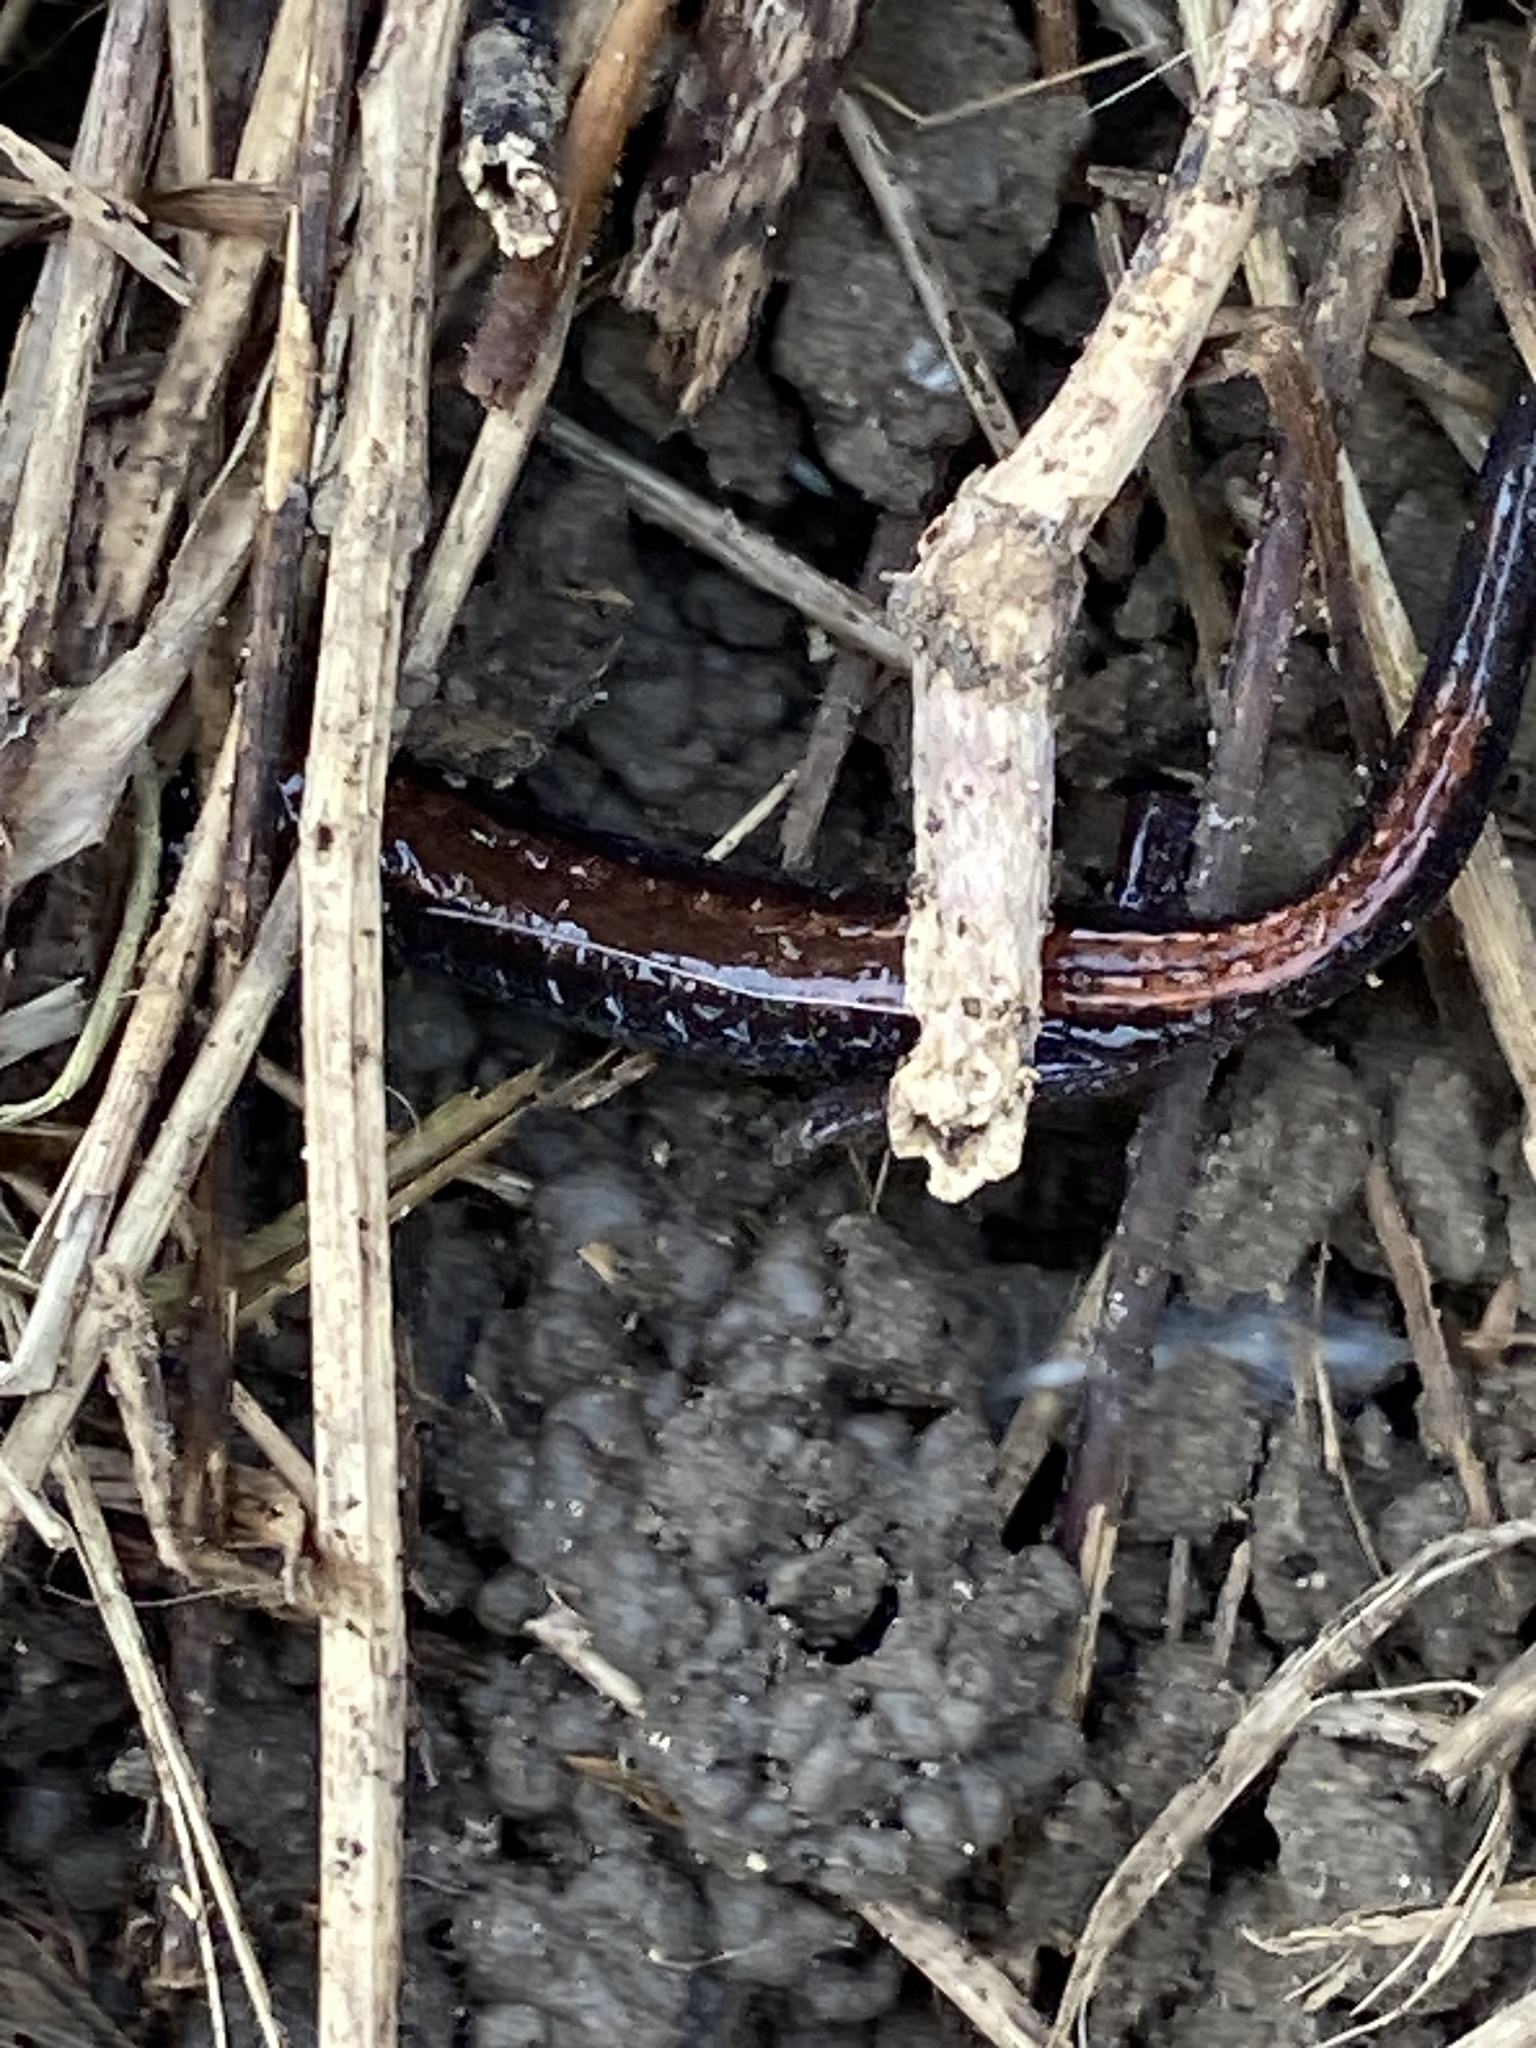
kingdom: Animalia
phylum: Chordata
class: Amphibia
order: Caudata
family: Plethodontidae
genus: Plethodon
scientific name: Plethodon cinereus
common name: Redback salamander
